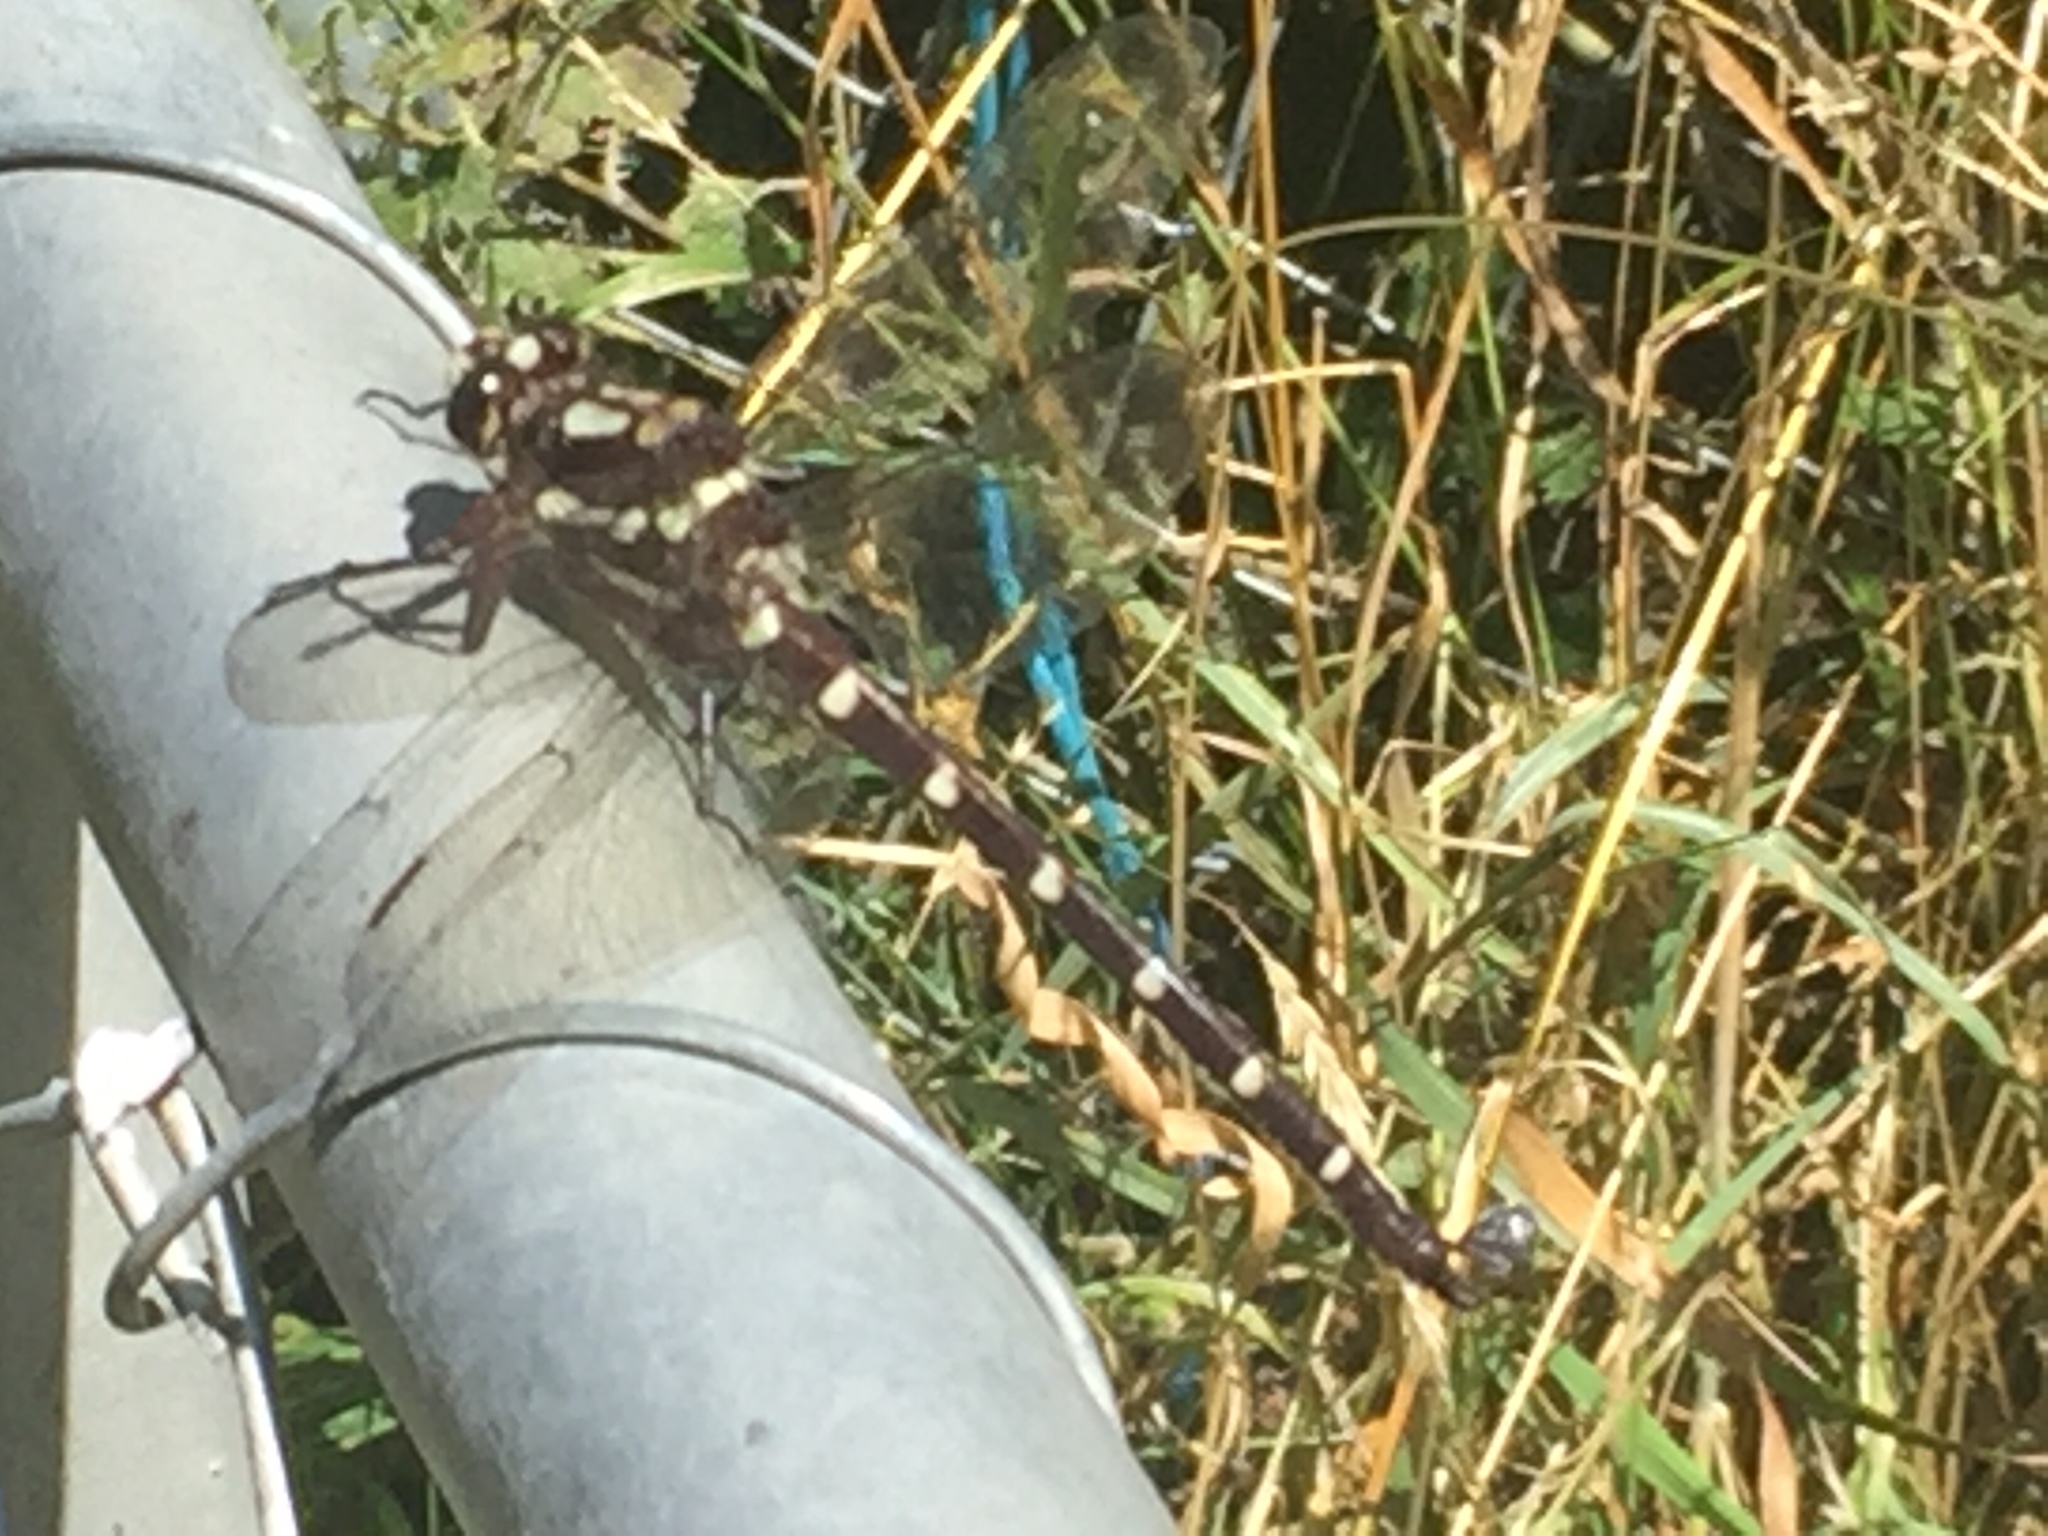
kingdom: Animalia
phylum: Arthropoda
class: Insecta
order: Odonata
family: Petaluridae
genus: Uropetala
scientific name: Uropetala carovei
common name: Bush giant dragonfly
